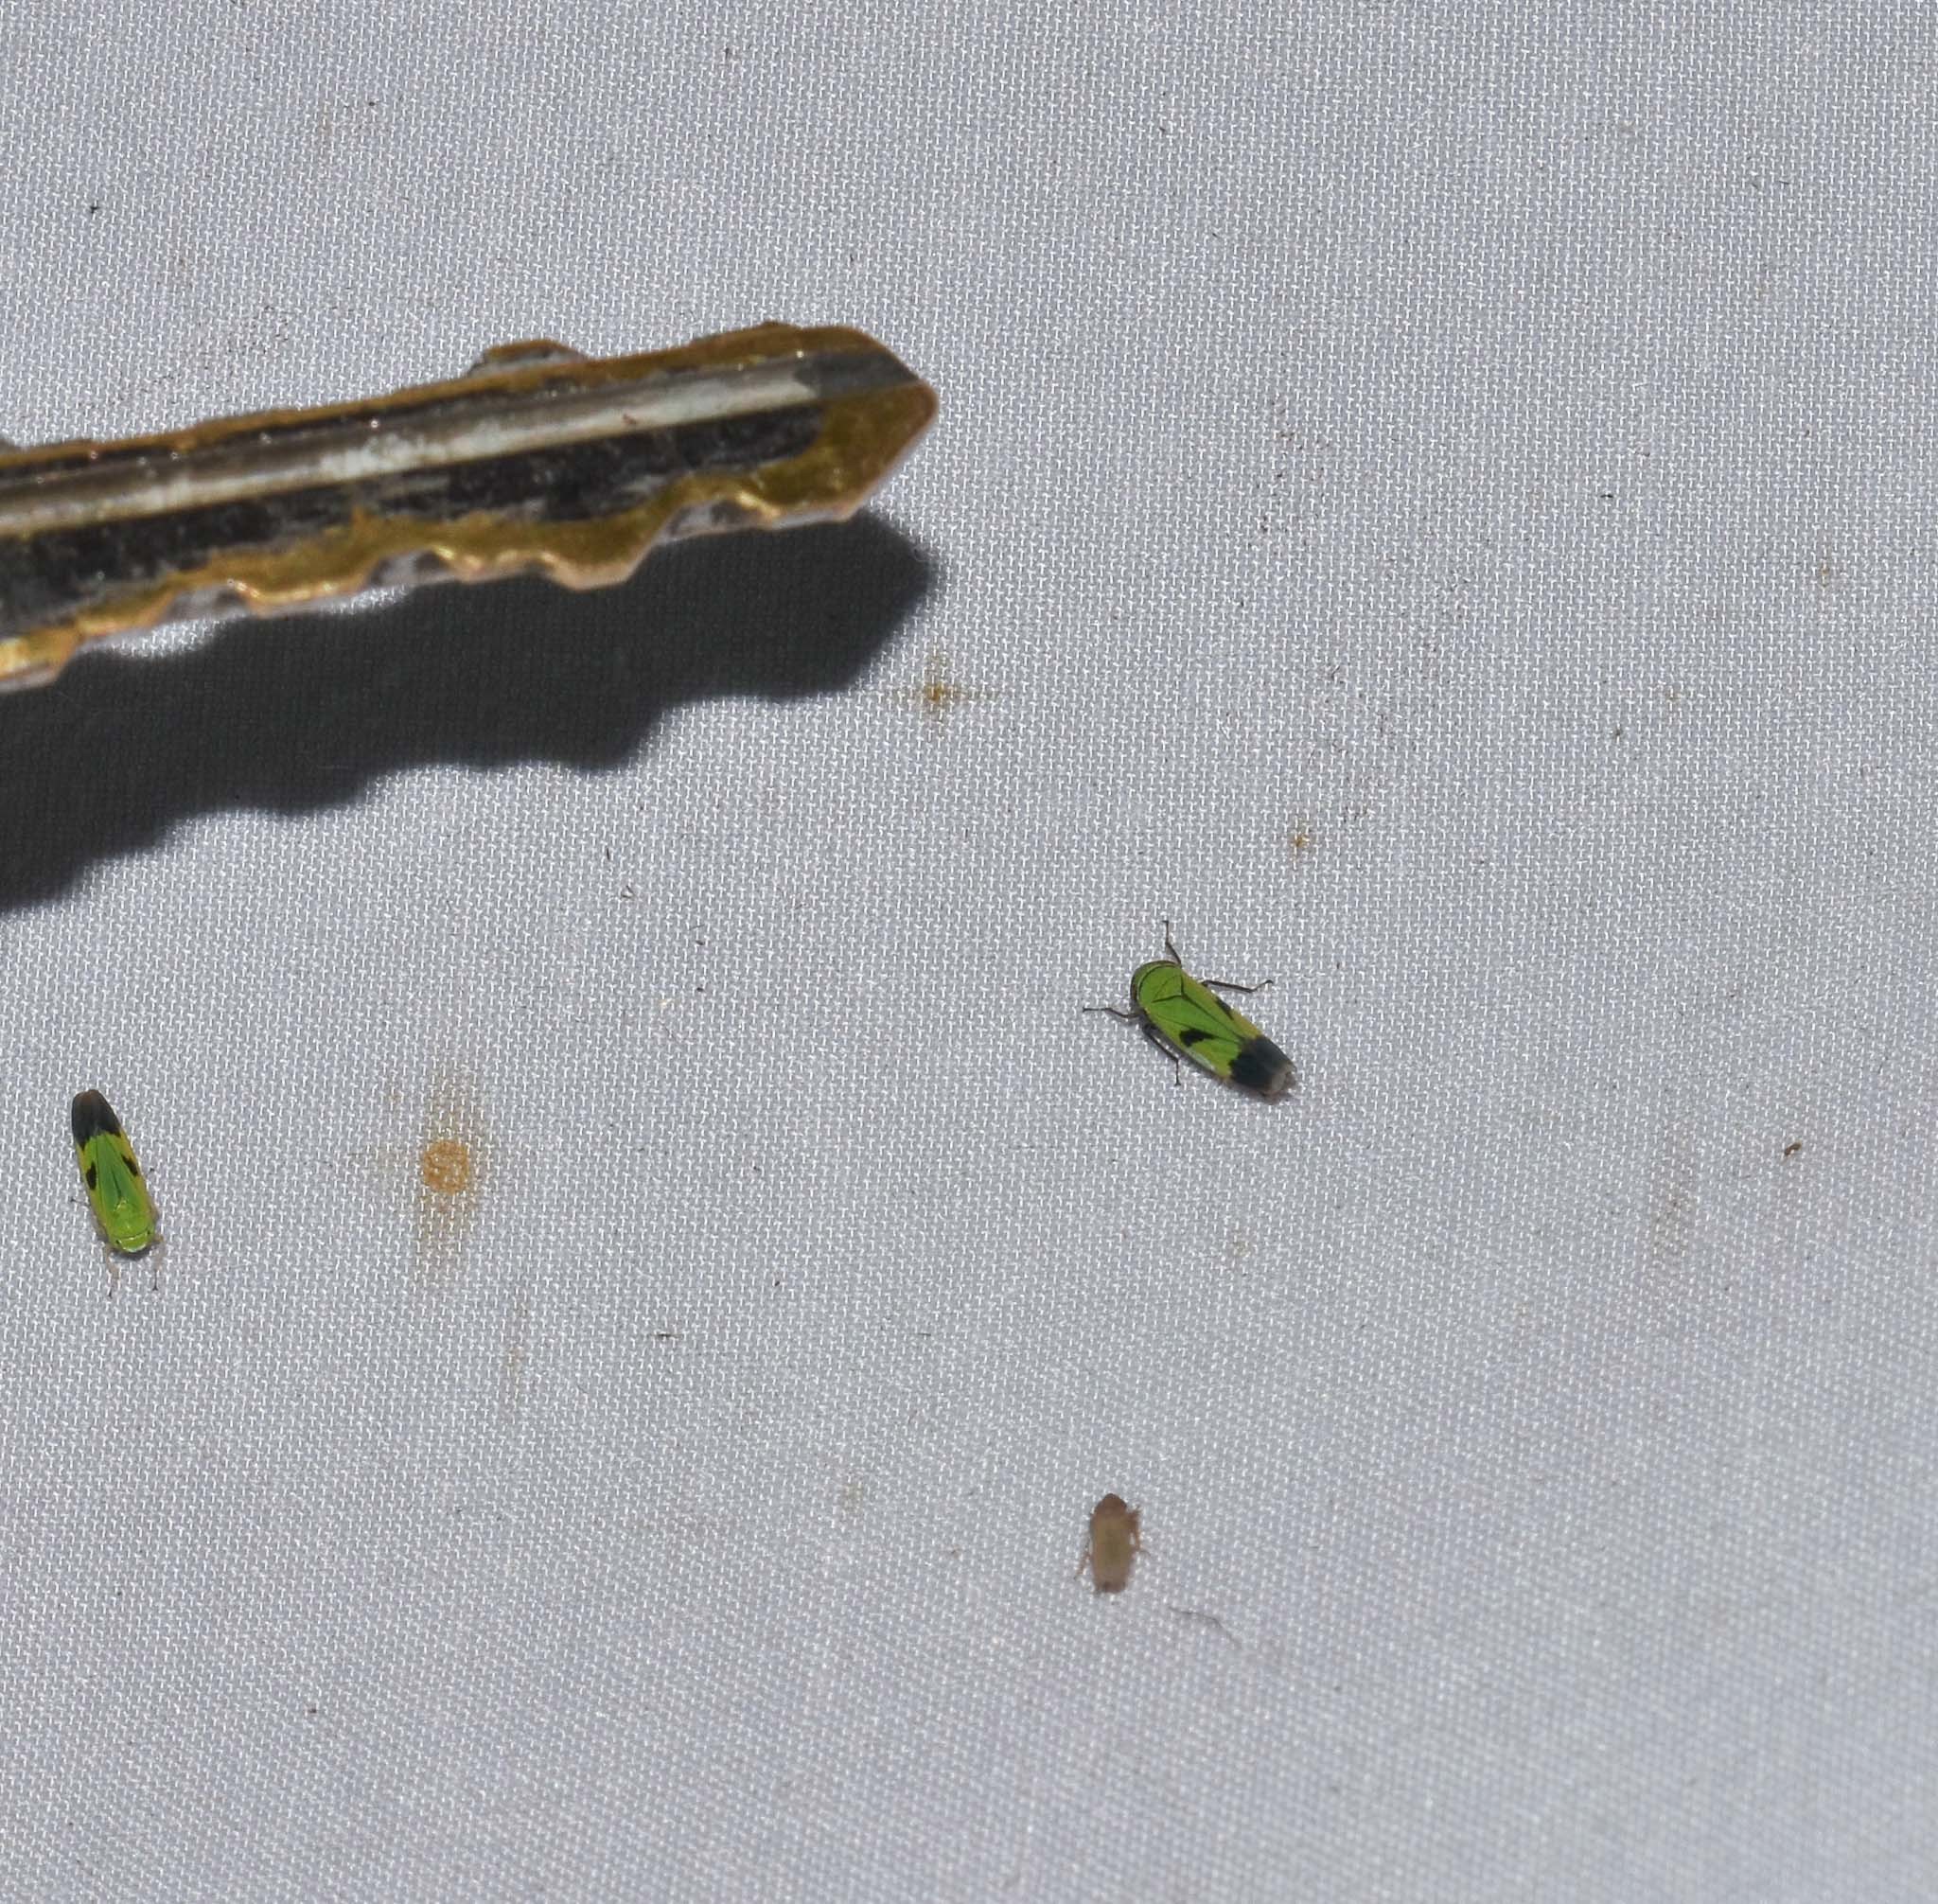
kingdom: Animalia
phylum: Arthropoda
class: Insecta
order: Hemiptera
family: Cicadellidae
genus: Nephotettix
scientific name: Nephotettix nigropictus
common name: Rice leafhopper
